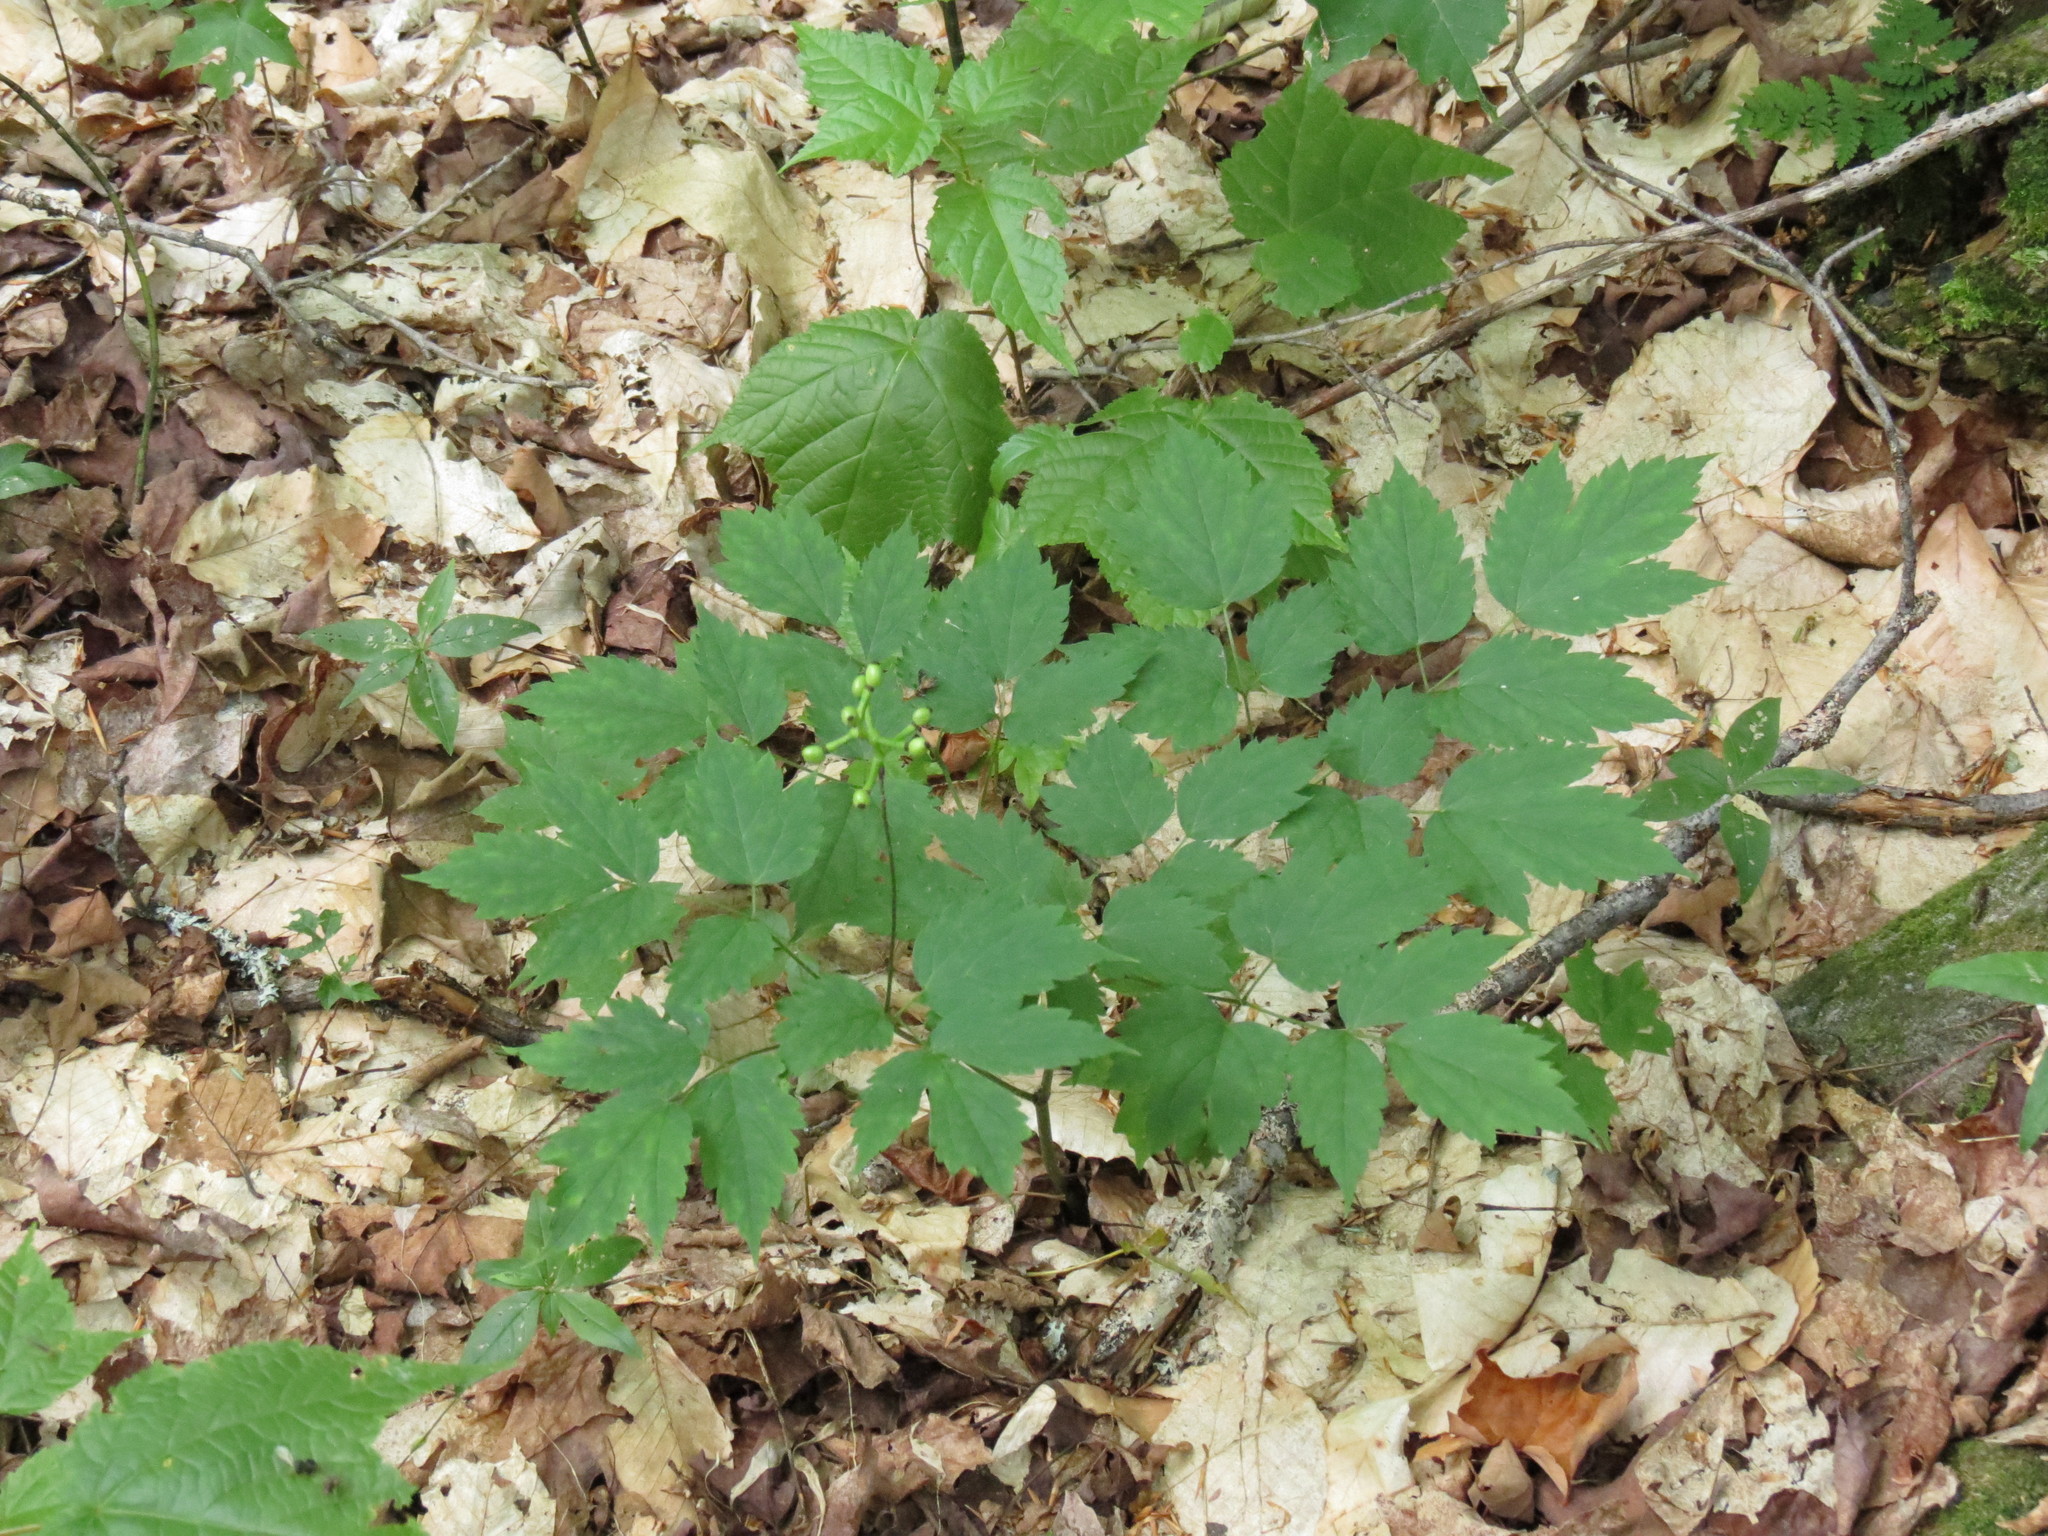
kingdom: Plantae
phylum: Tracheophyta
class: Magnoliopsida
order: Ranunculales
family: Ranunculaceae
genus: Actaea
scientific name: Actaea pachypoda
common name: Doll's-eyes
